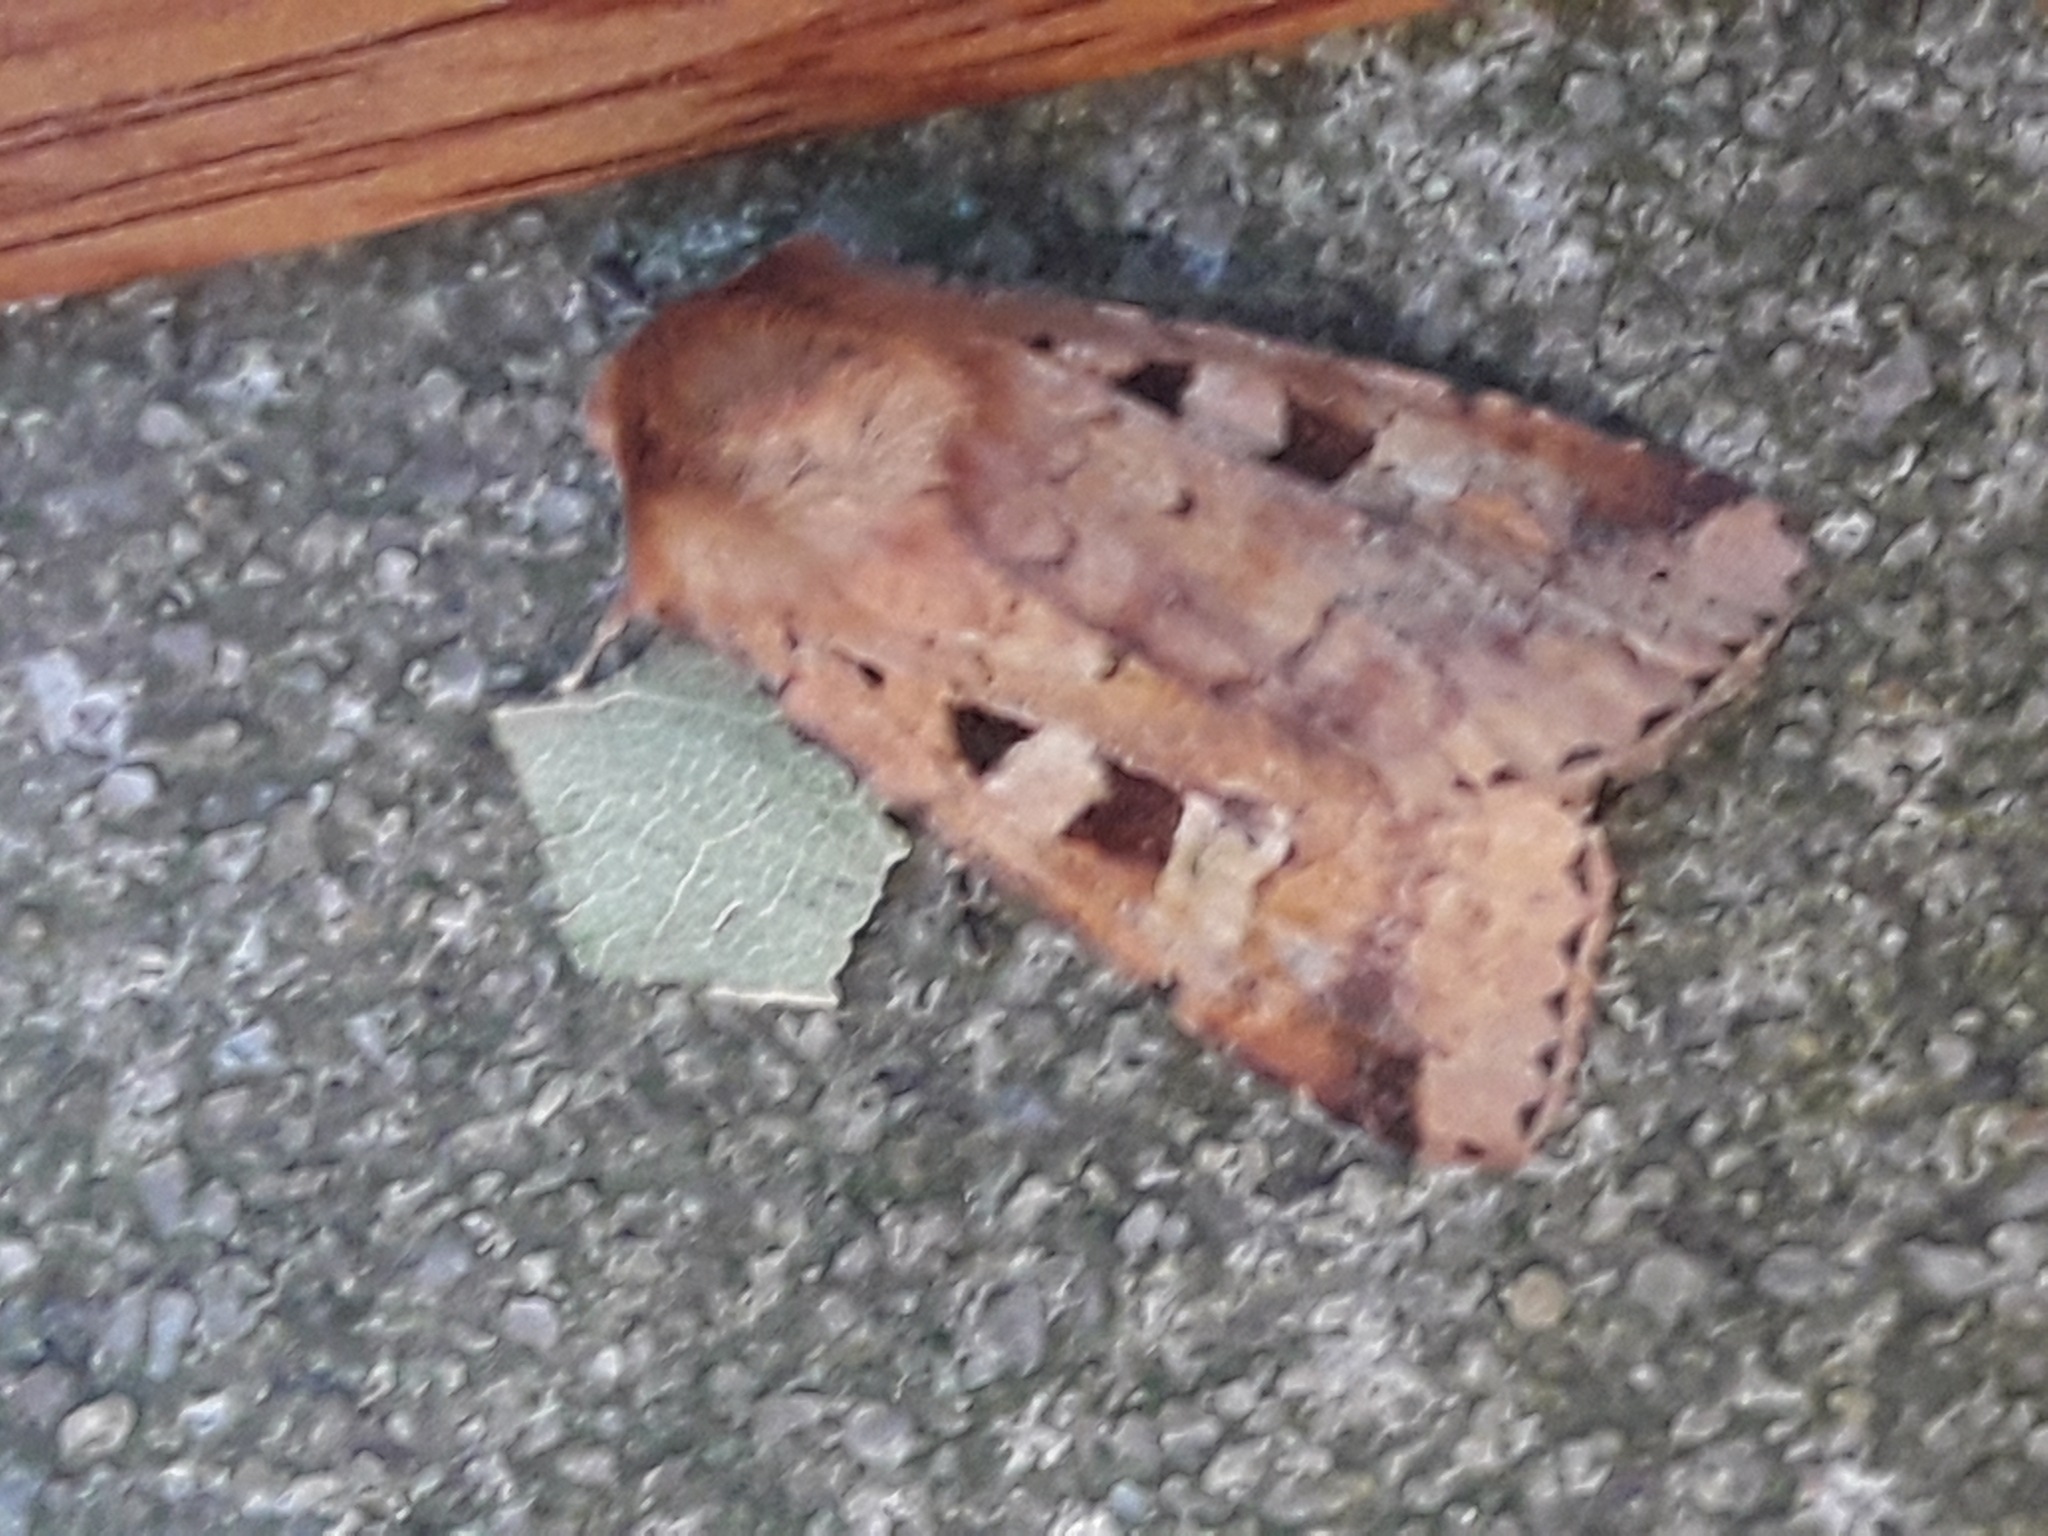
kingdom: Animalia
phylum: Arthropoda
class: Insecta
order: Lepidoptera
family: Noctuidae
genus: Diarsia
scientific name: Diarsia mendica
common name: Ingrailed clay
